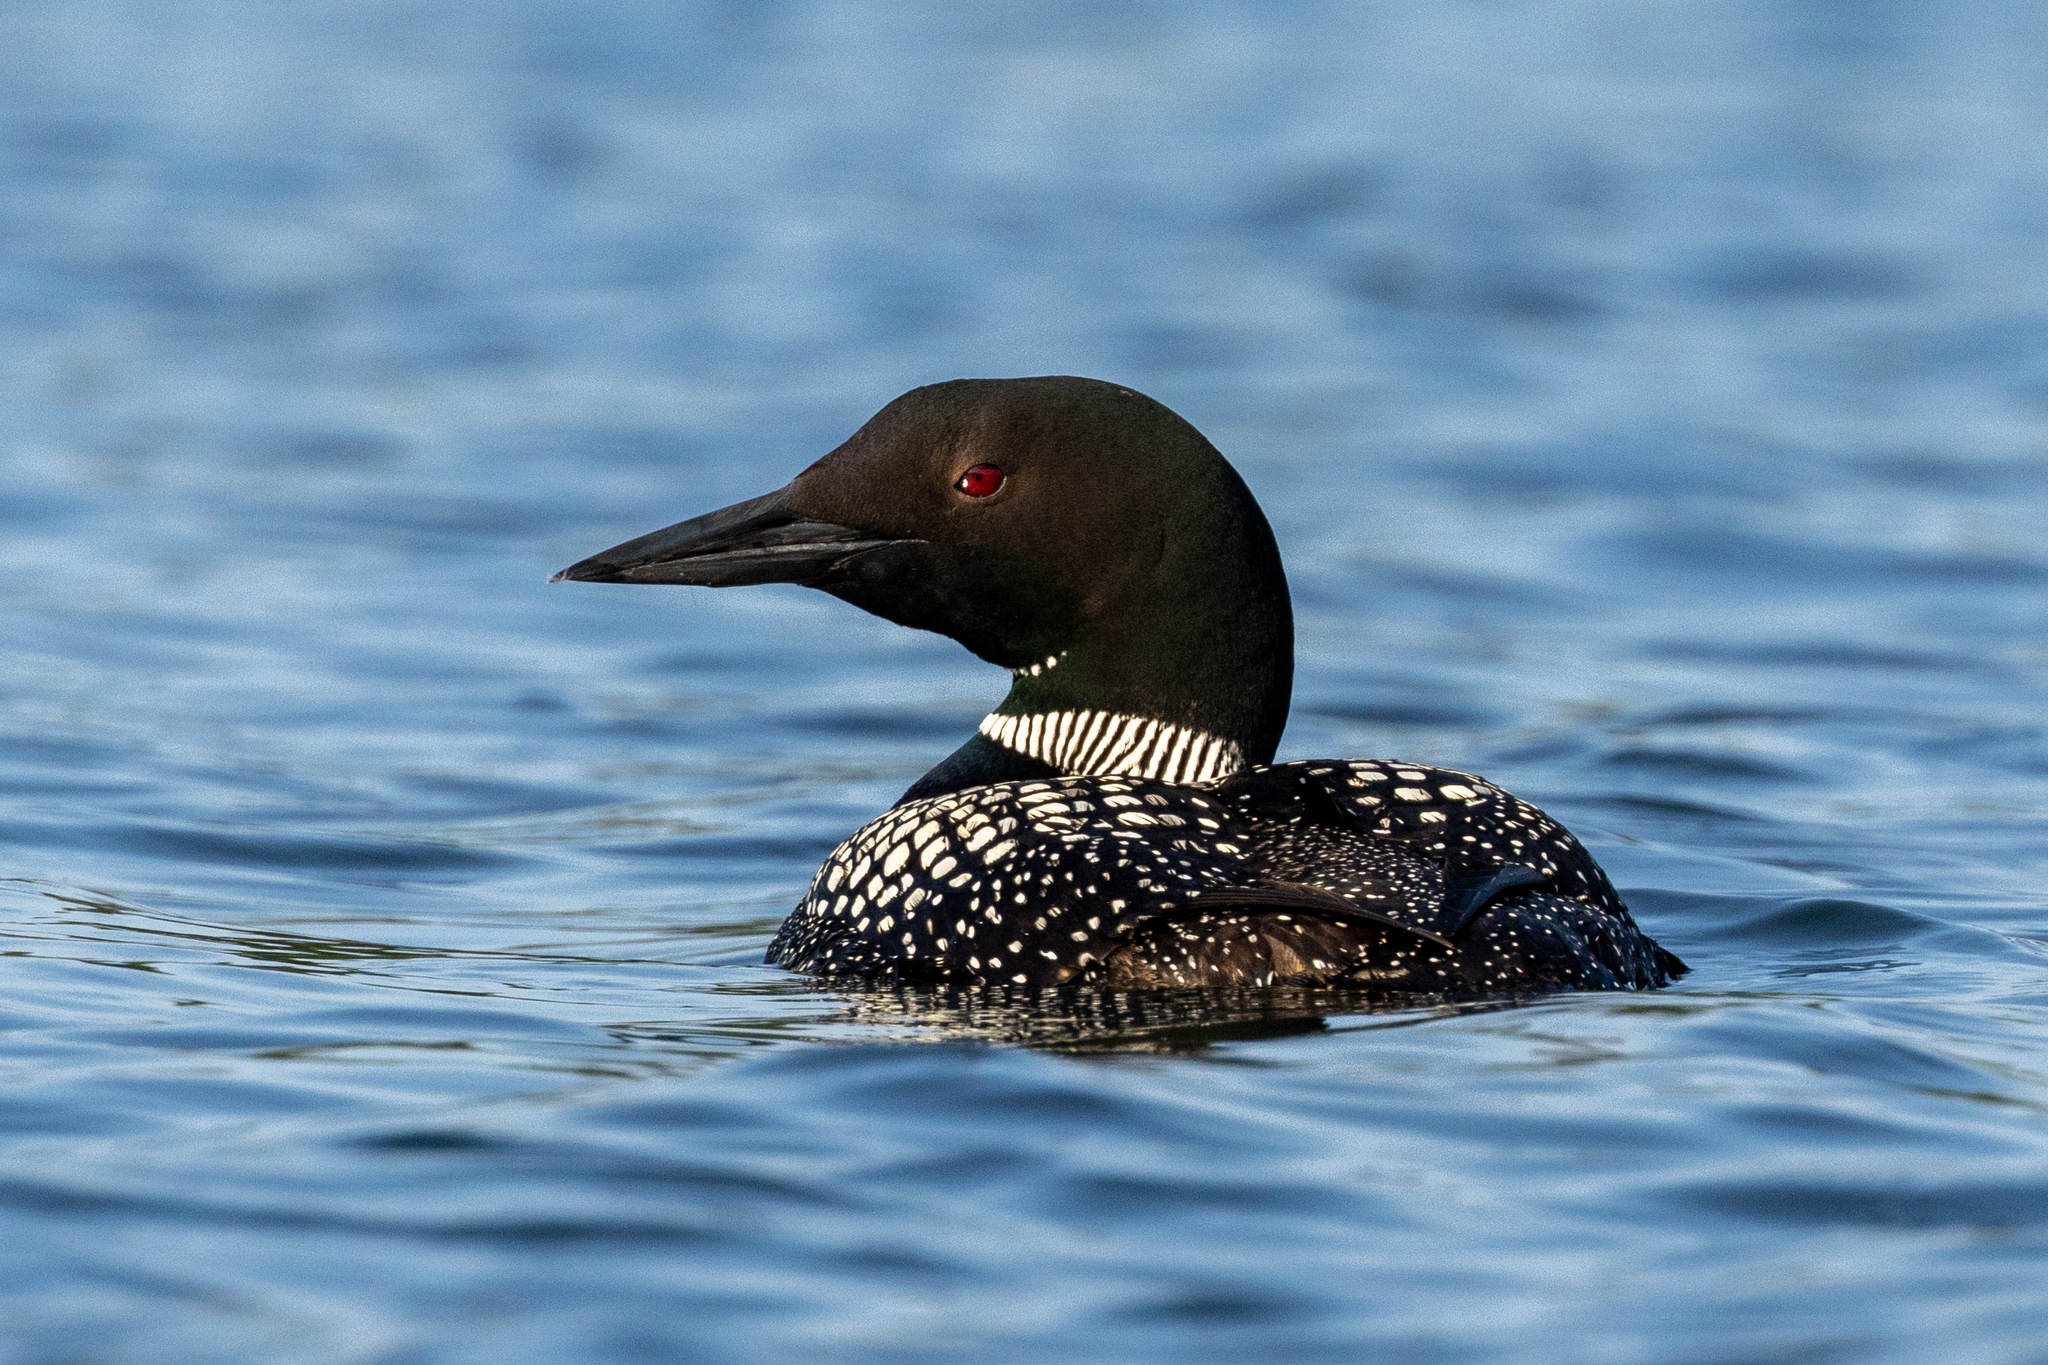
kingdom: Animalia
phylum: Chordata
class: Aves
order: Gaviiformes
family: Gaviidae
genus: Gavia
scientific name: Gavia immer
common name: Common loon
